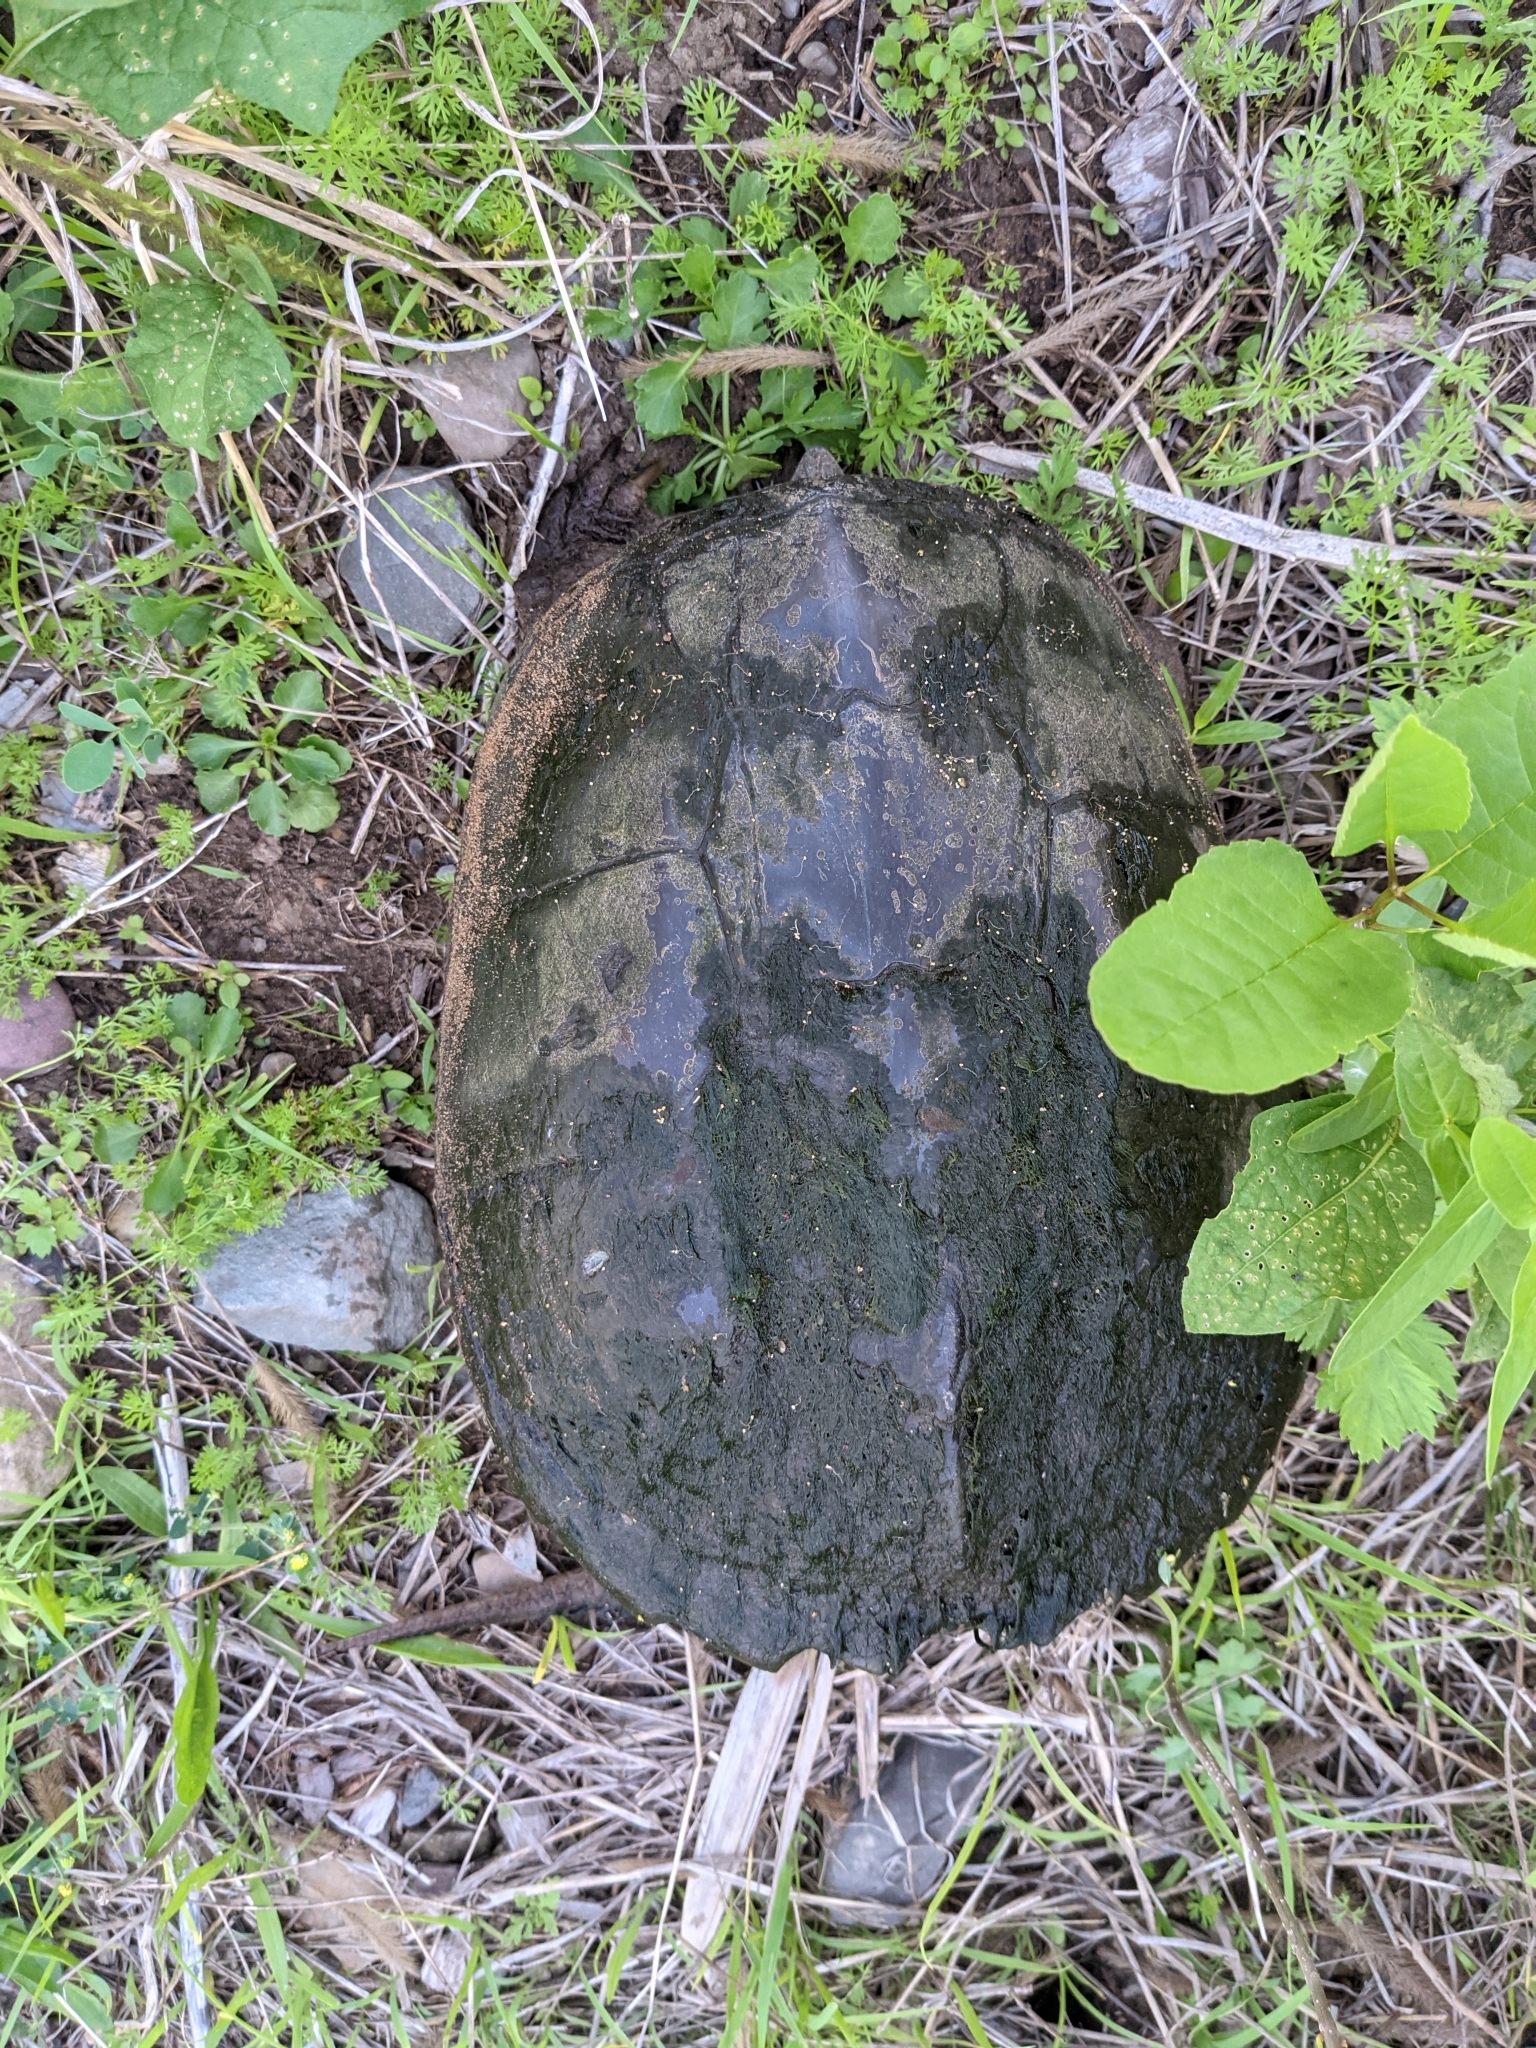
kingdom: Animalia
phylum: Chordata
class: Testudines
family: Chelydridae
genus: Chelydra
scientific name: Chelydra serpentina
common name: Common snapping turtle
